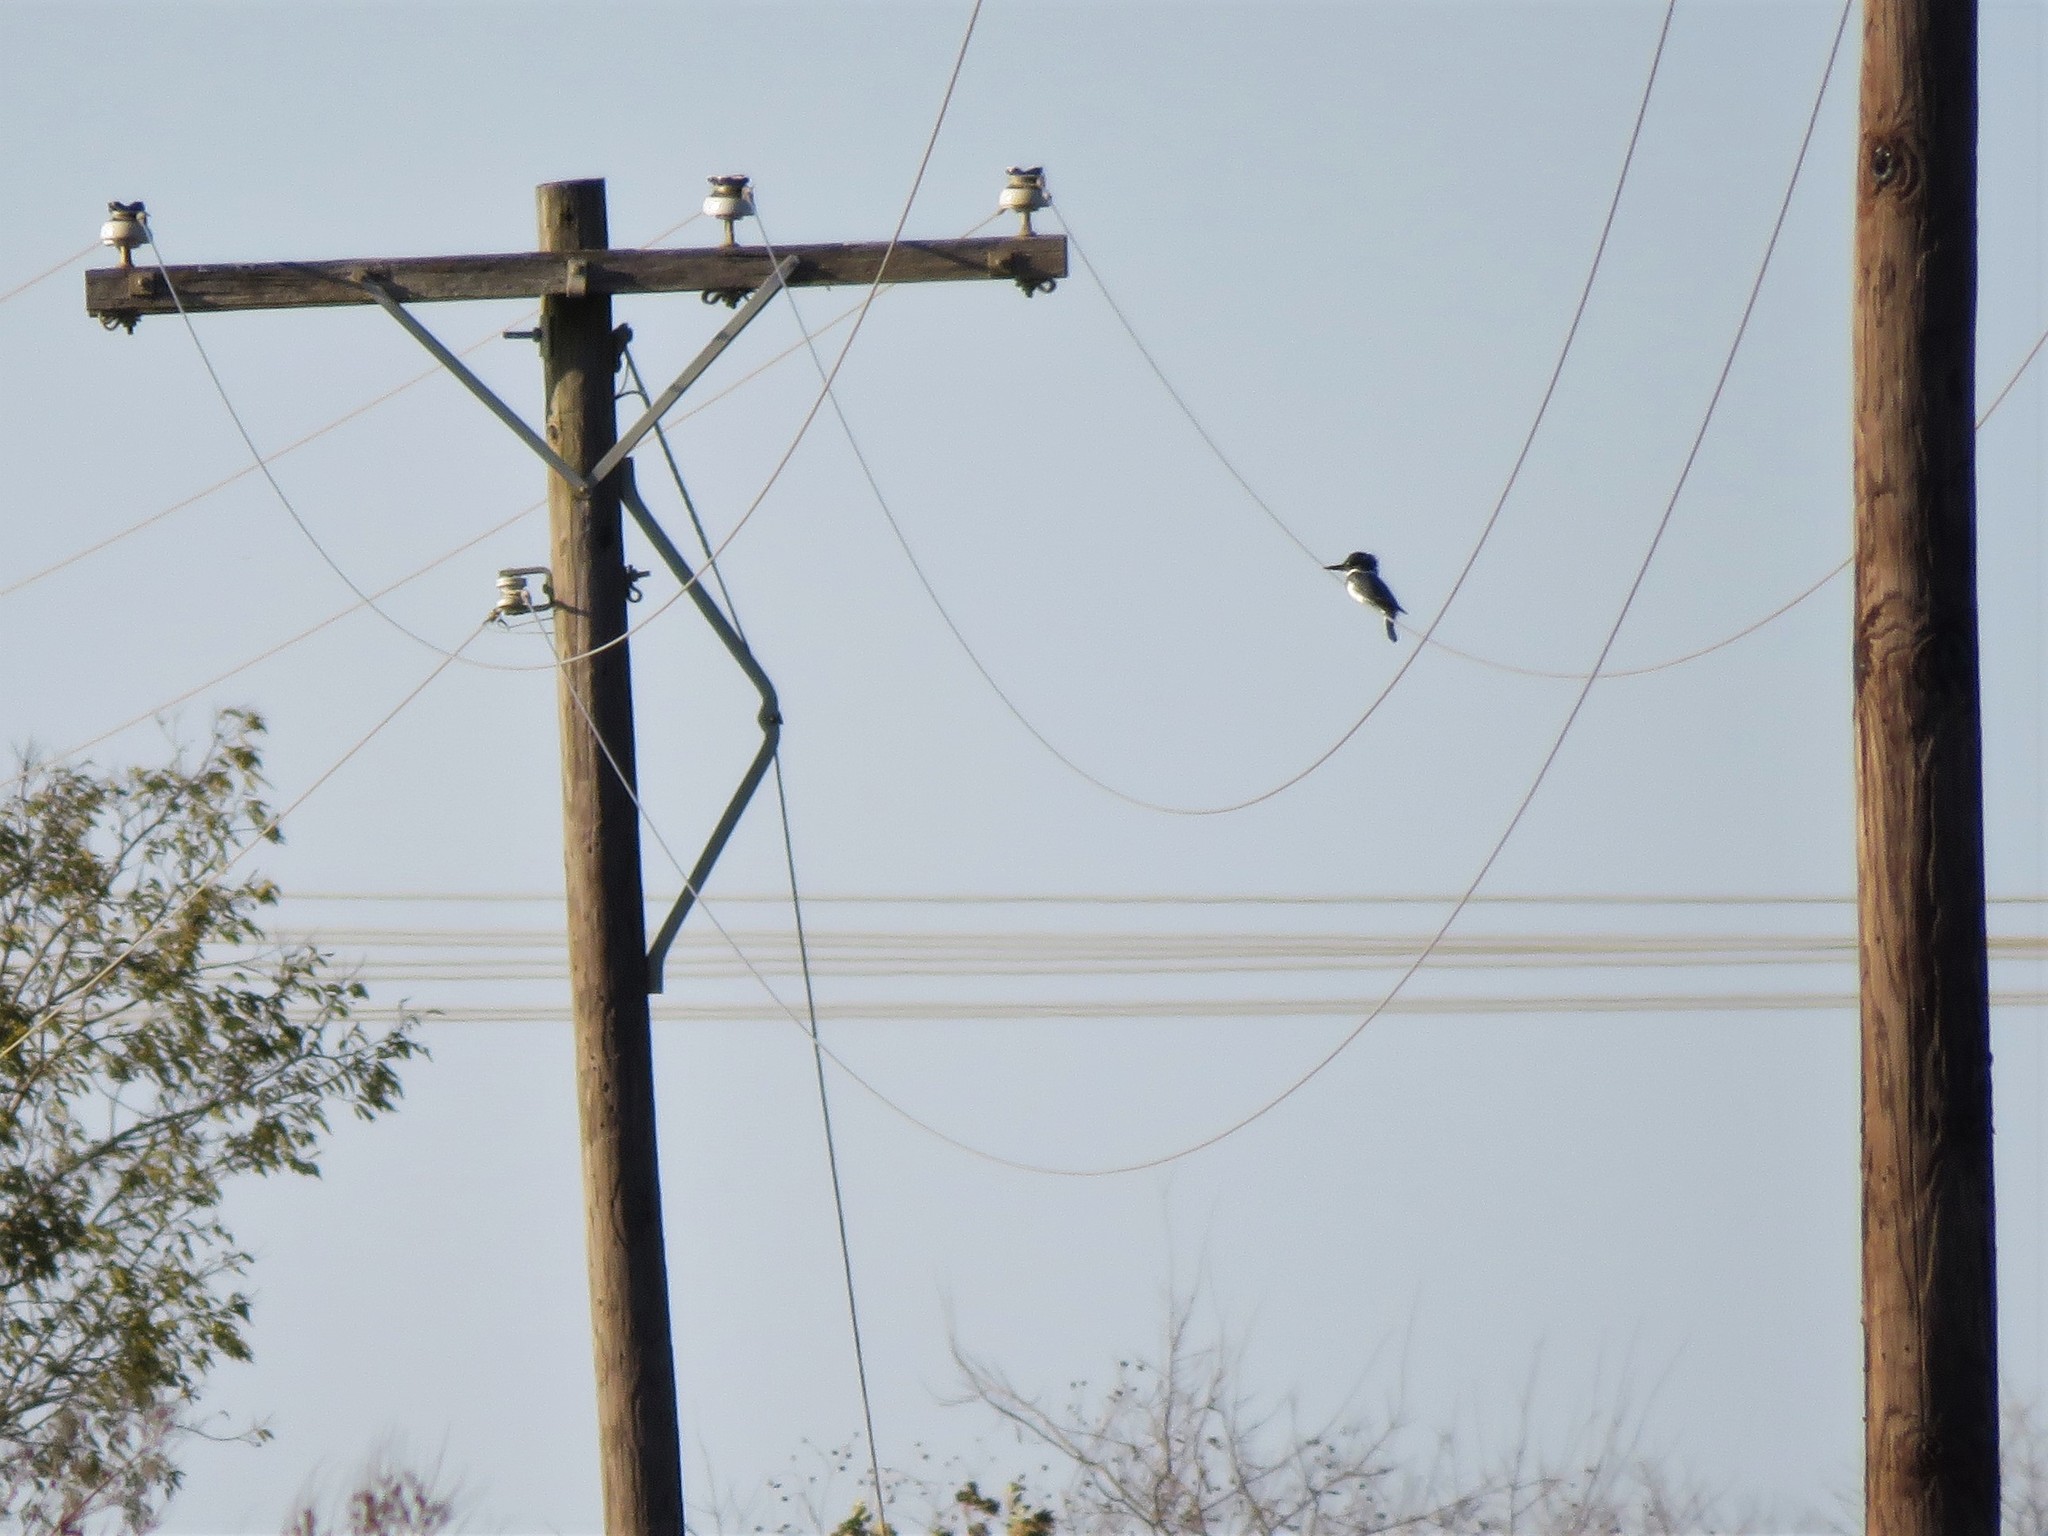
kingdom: Animalia
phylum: Chordata
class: Aves
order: Coraciiformes
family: Alcedinidae
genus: Megaceryle
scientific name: Megaceryle alcyon
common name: Belted kingfisher
